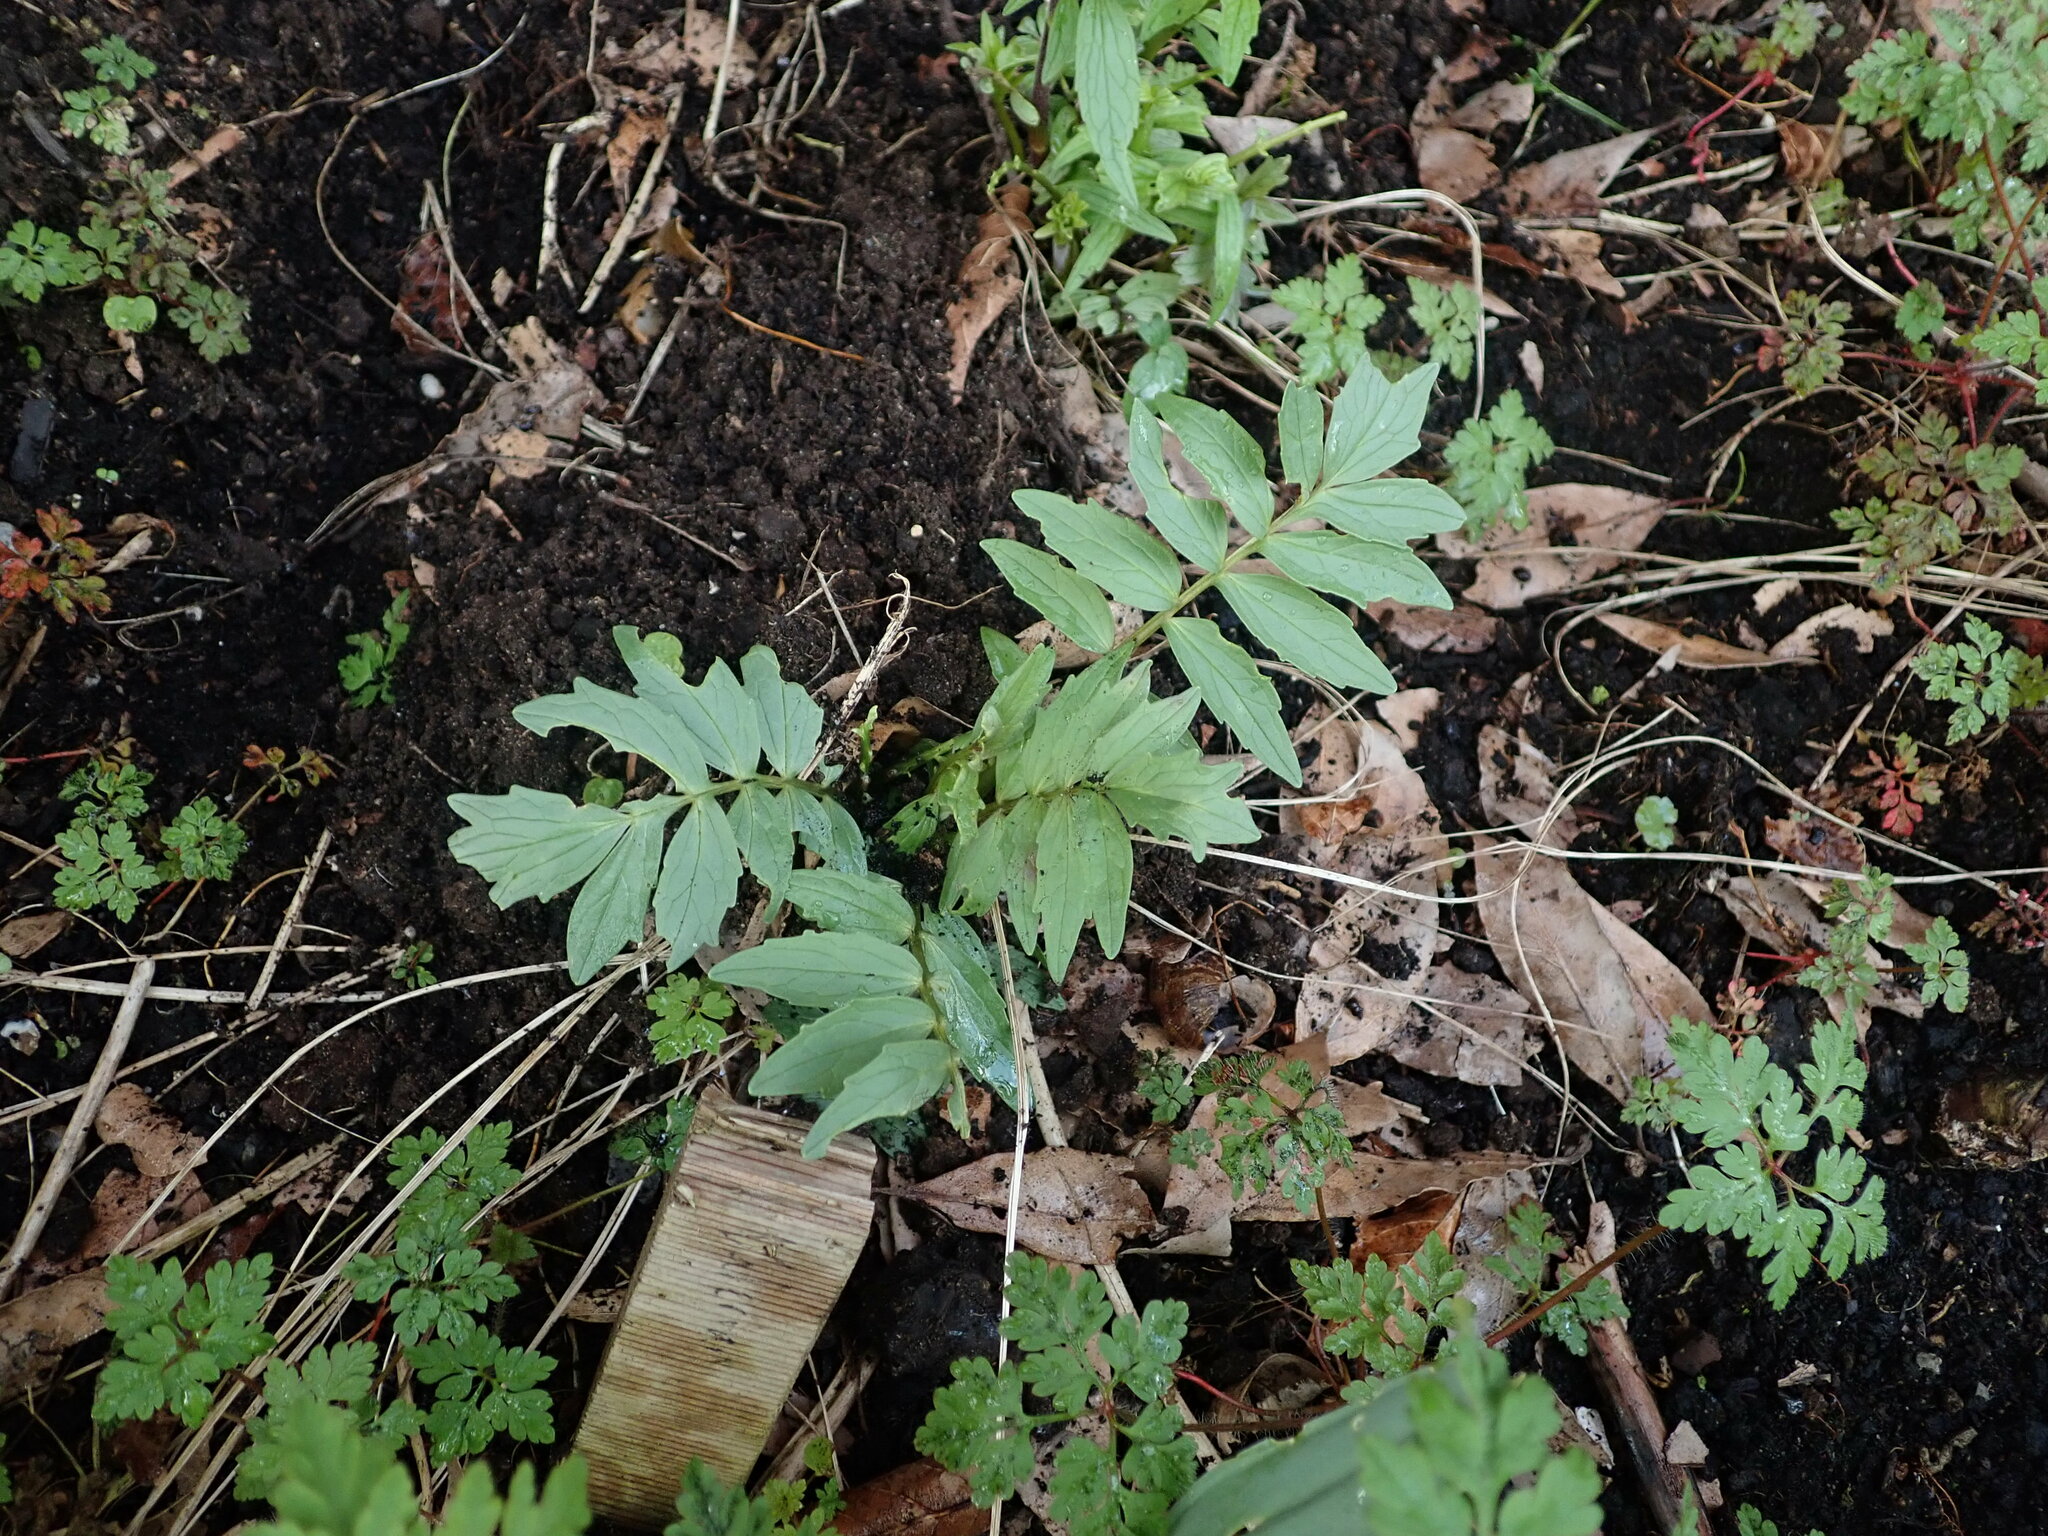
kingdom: Plantae
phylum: Tracheophyta
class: Magnoliopsida
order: Dipsacales
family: Caprifoliaceae
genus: Valeriana
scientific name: Valeriana officinalis
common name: Common valerian
